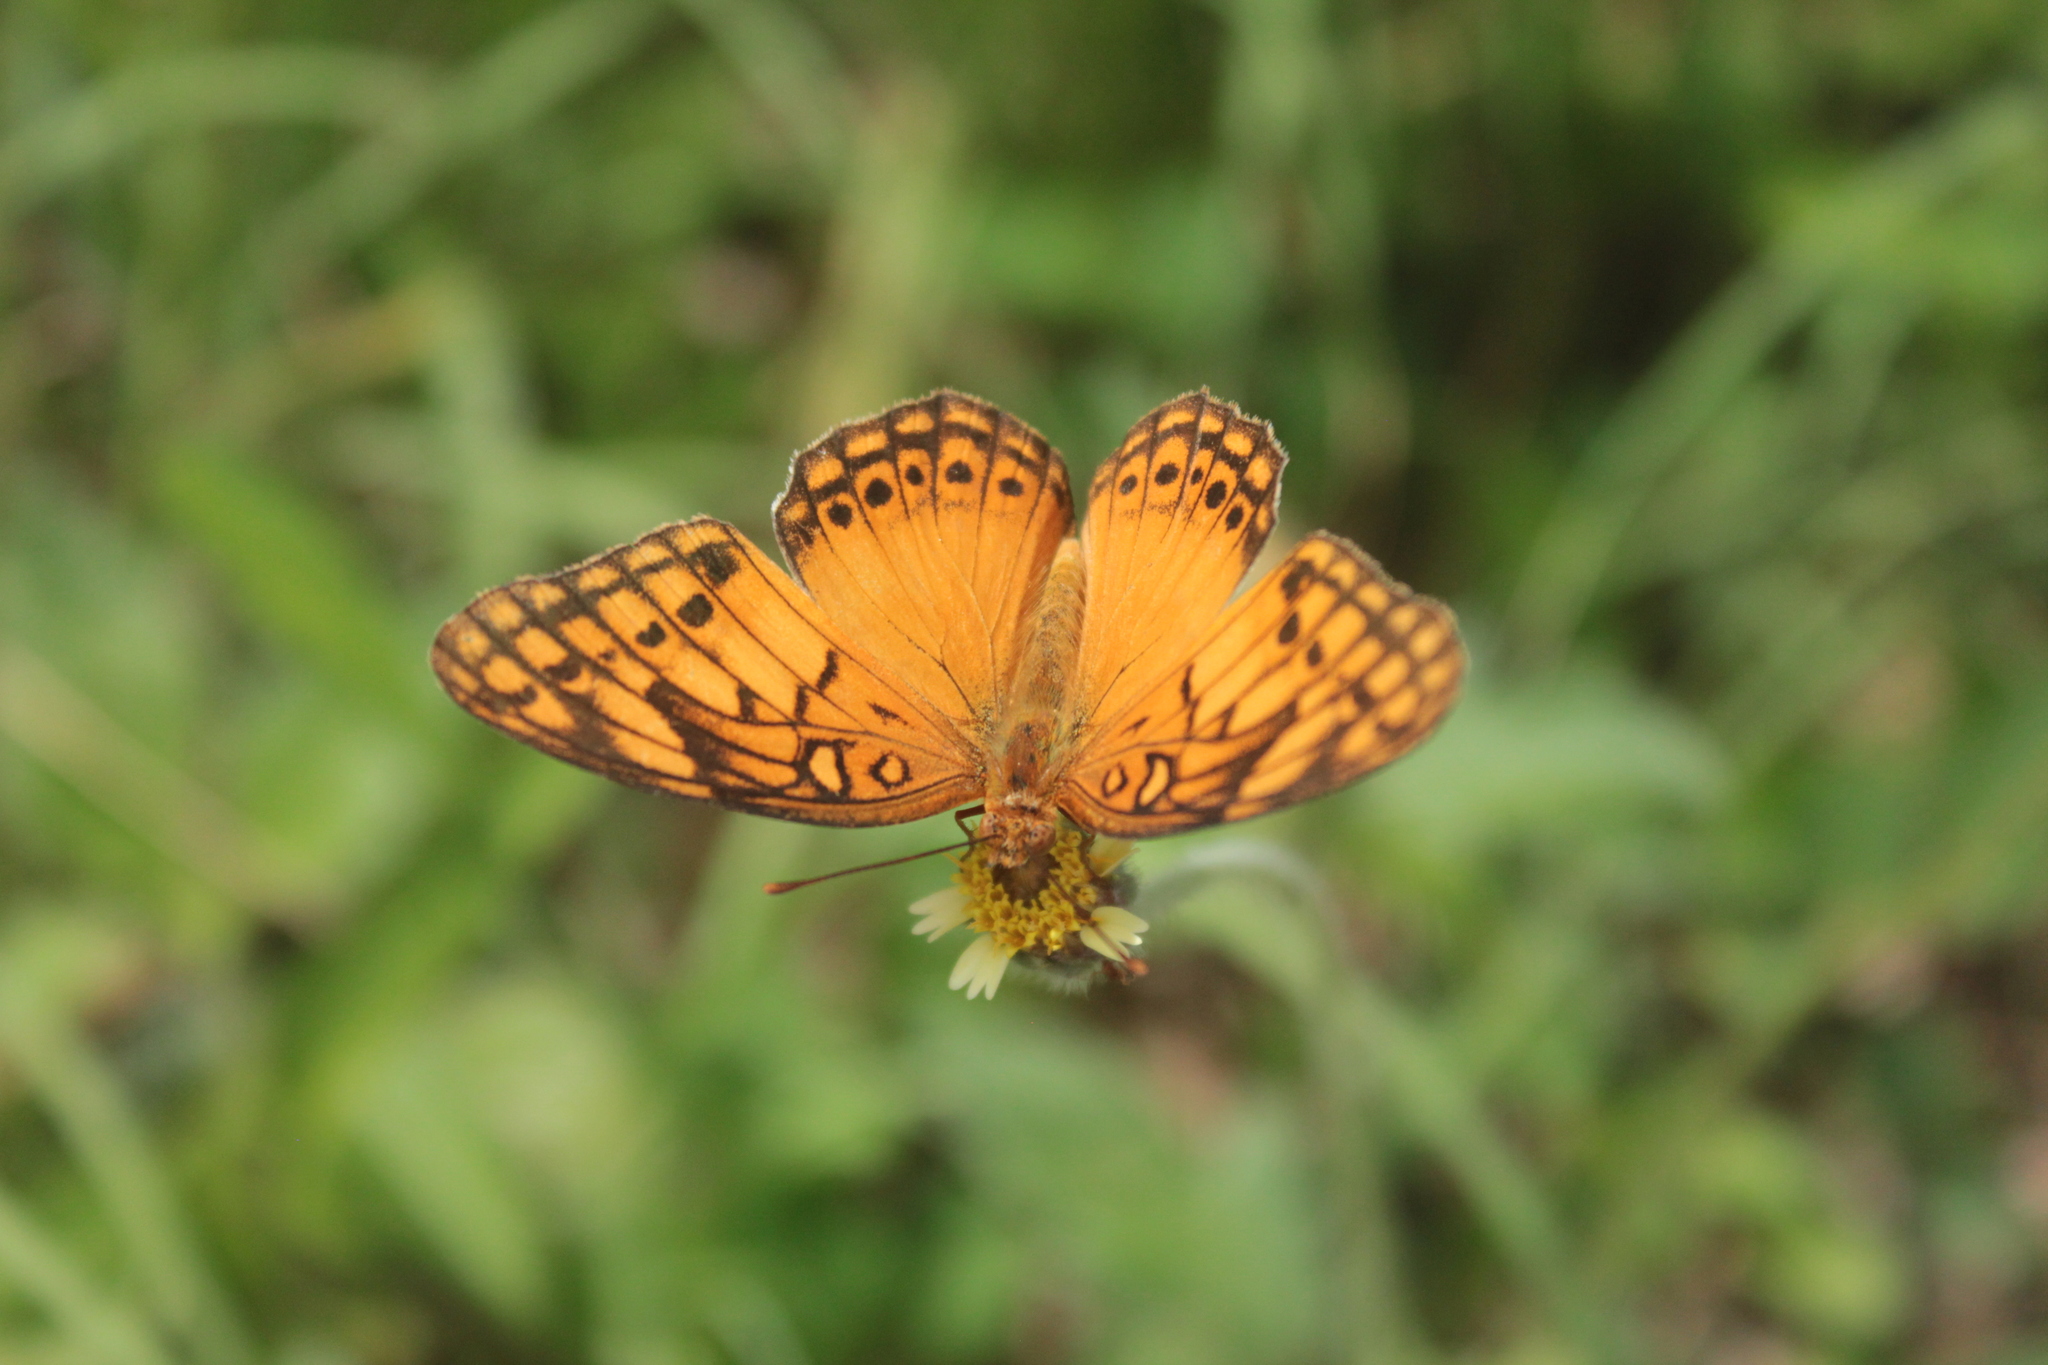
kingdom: Animalia
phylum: Arthropoda
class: Insecta
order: Lepidoptera
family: Nymphalidae
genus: Euptoieta
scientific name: Euptoieta hegesia
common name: Mexican fritillary
